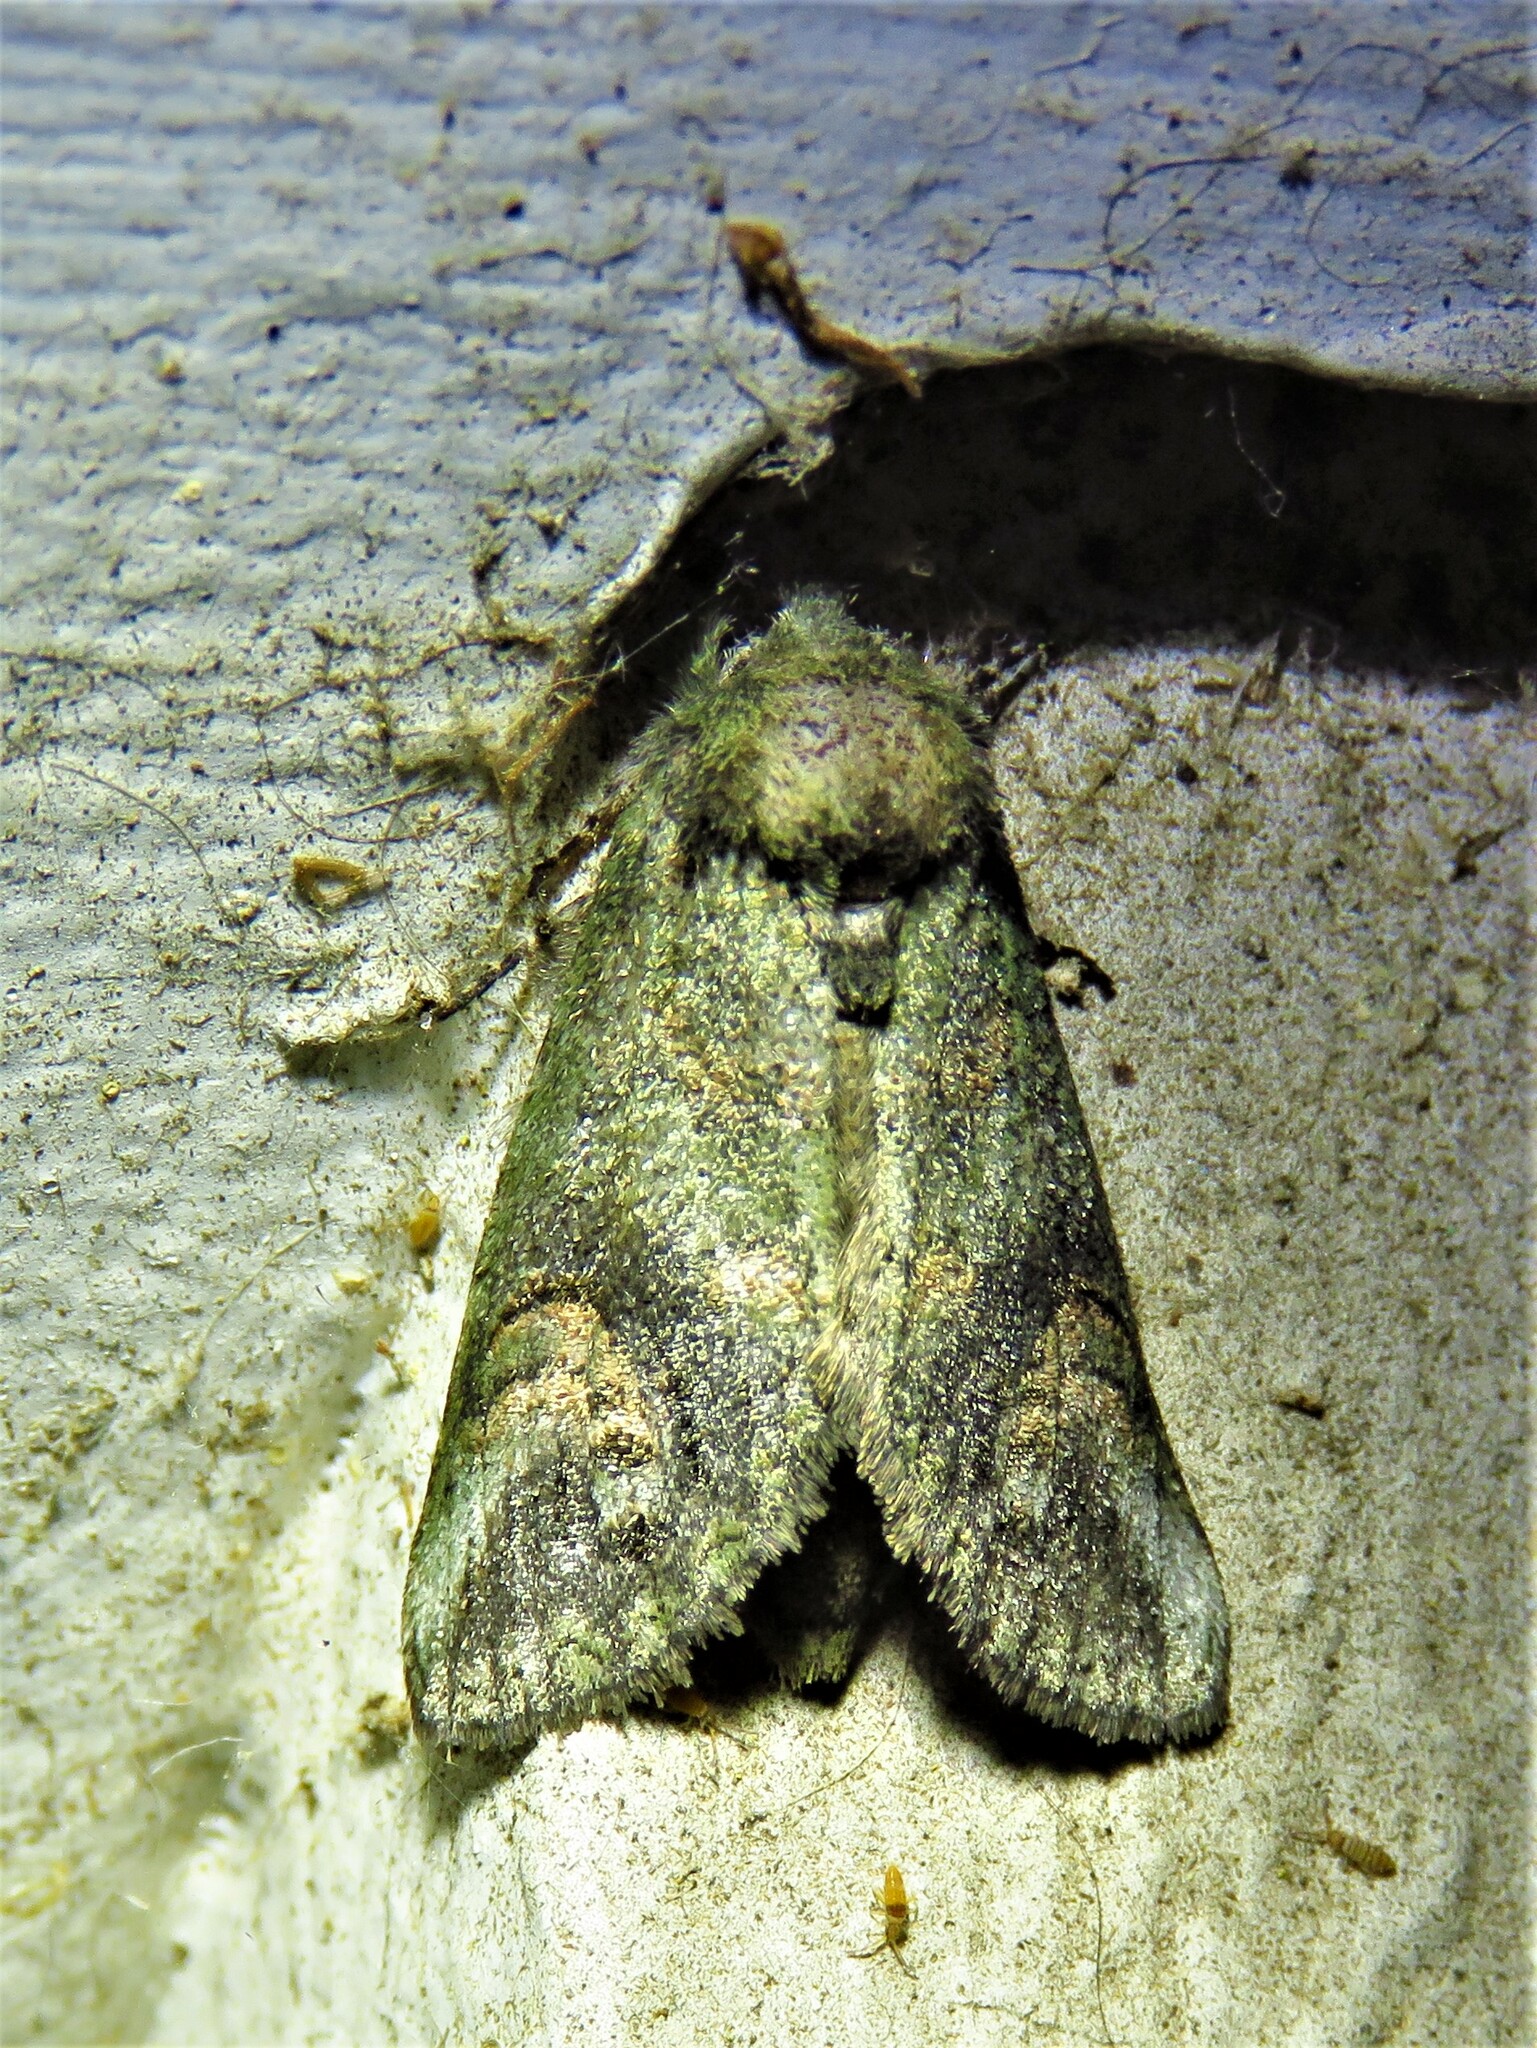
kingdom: Animalia
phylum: Arthropoda
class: Insecta
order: Lepidoptera
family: Notodontidae
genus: Rifargia
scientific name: Rifargia
